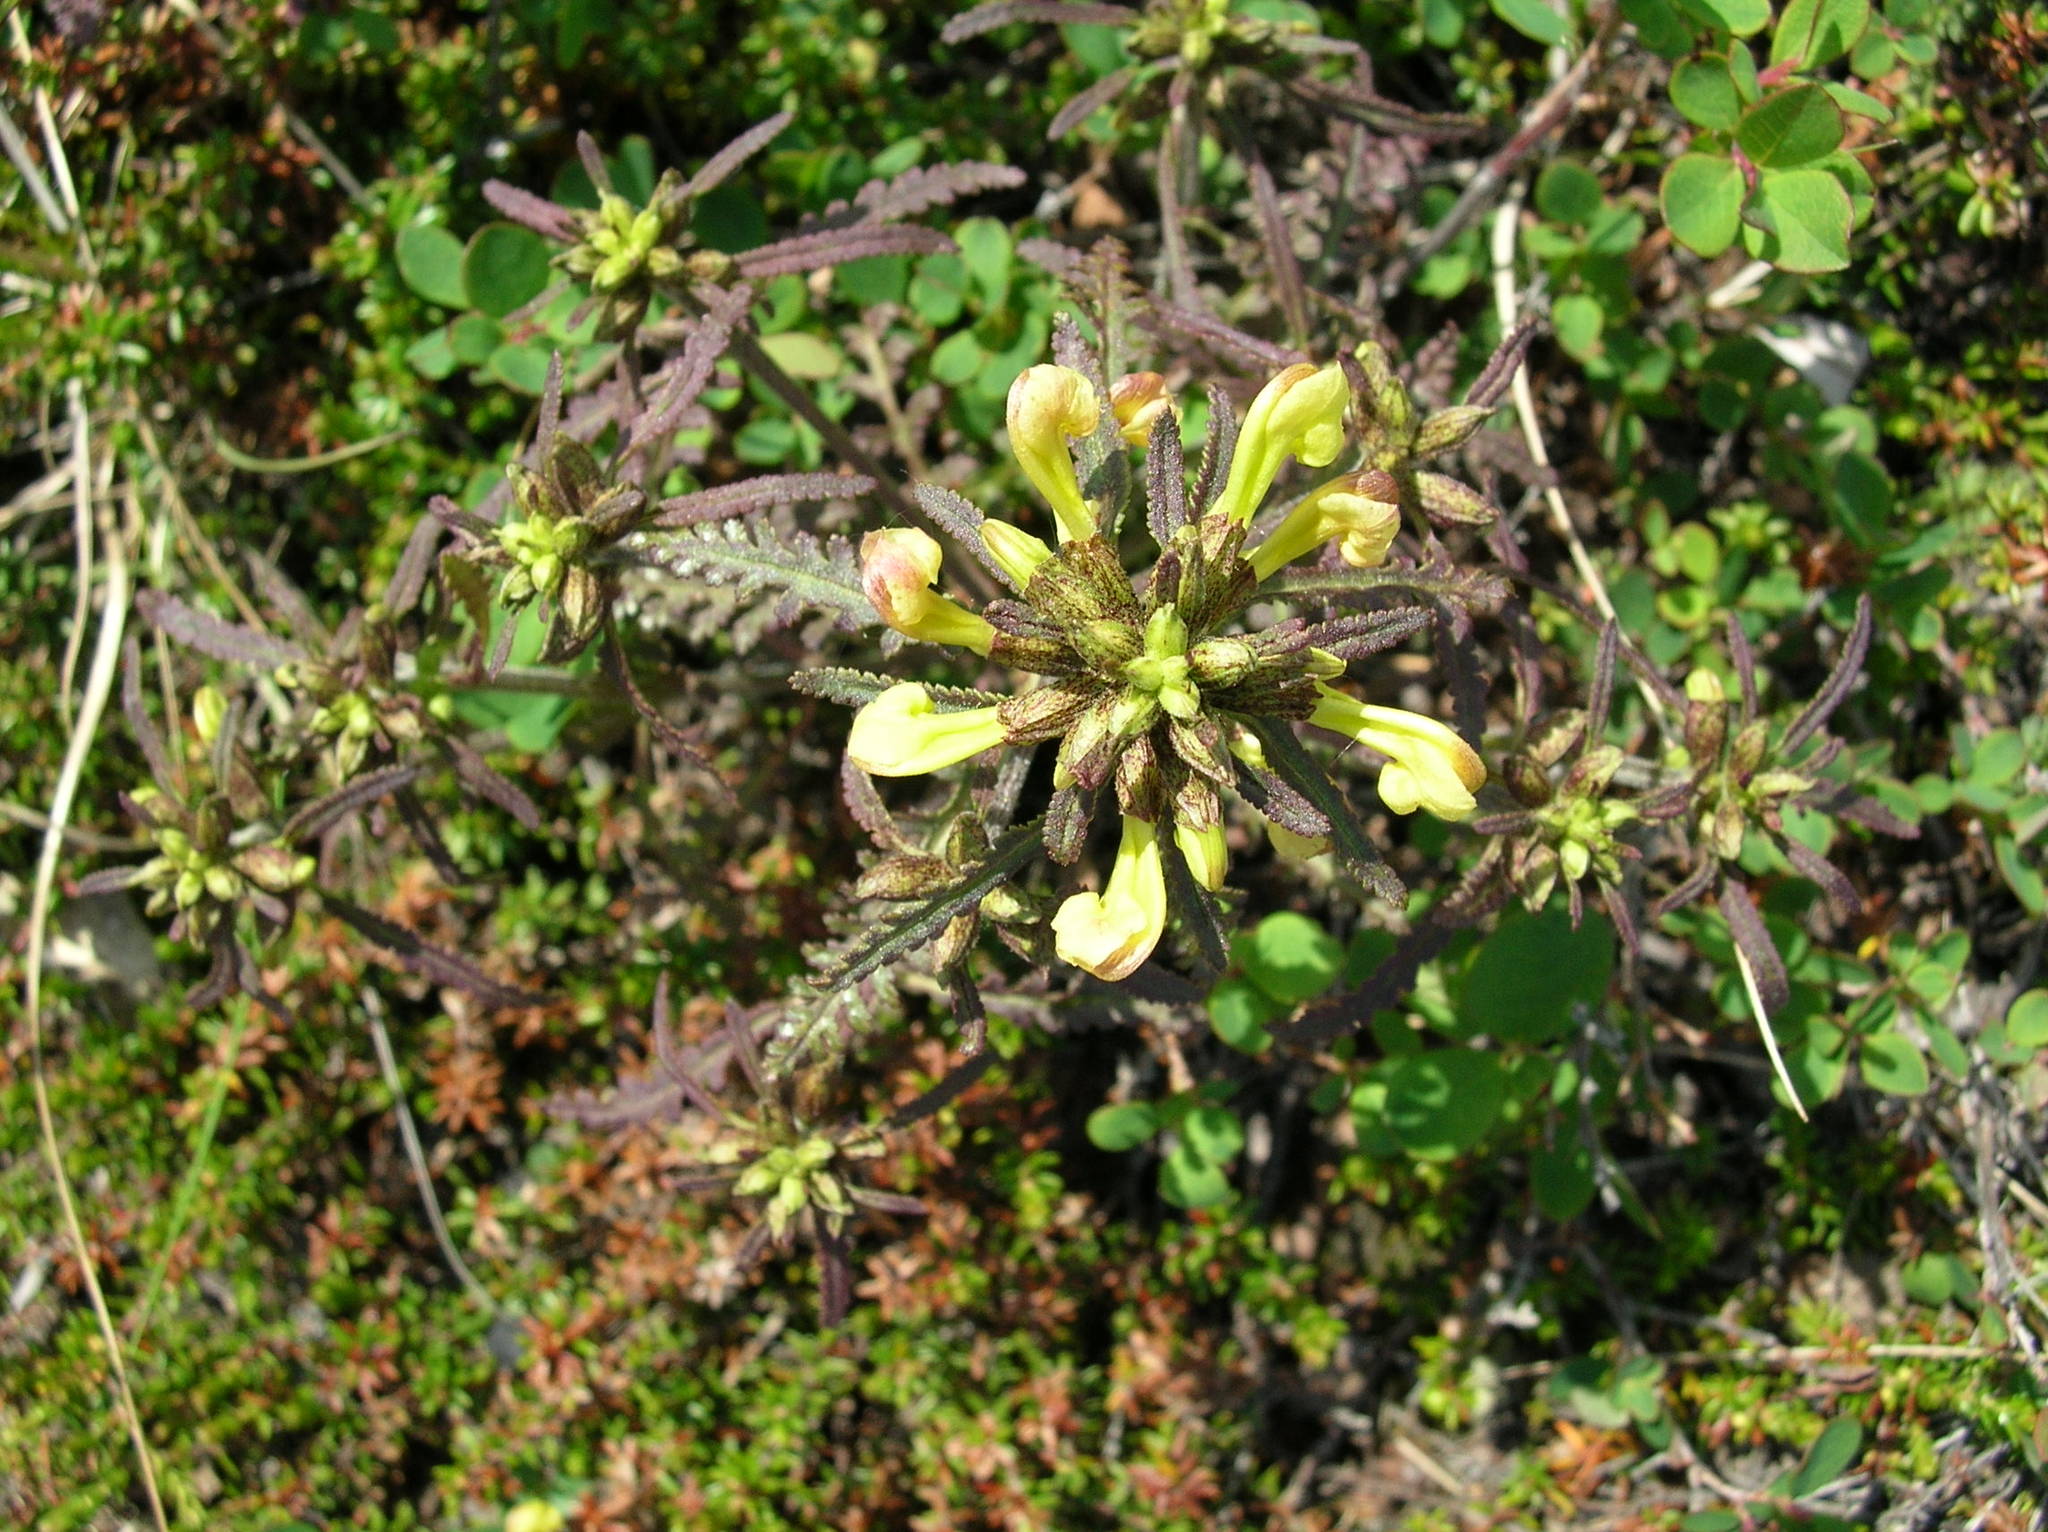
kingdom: Plantae
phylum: Tracheophyta
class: Magnoliopsida
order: Lamiales
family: Orobanchaceae
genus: Pedicularis
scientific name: Pedicularis labradorica
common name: Labrador lousewort
